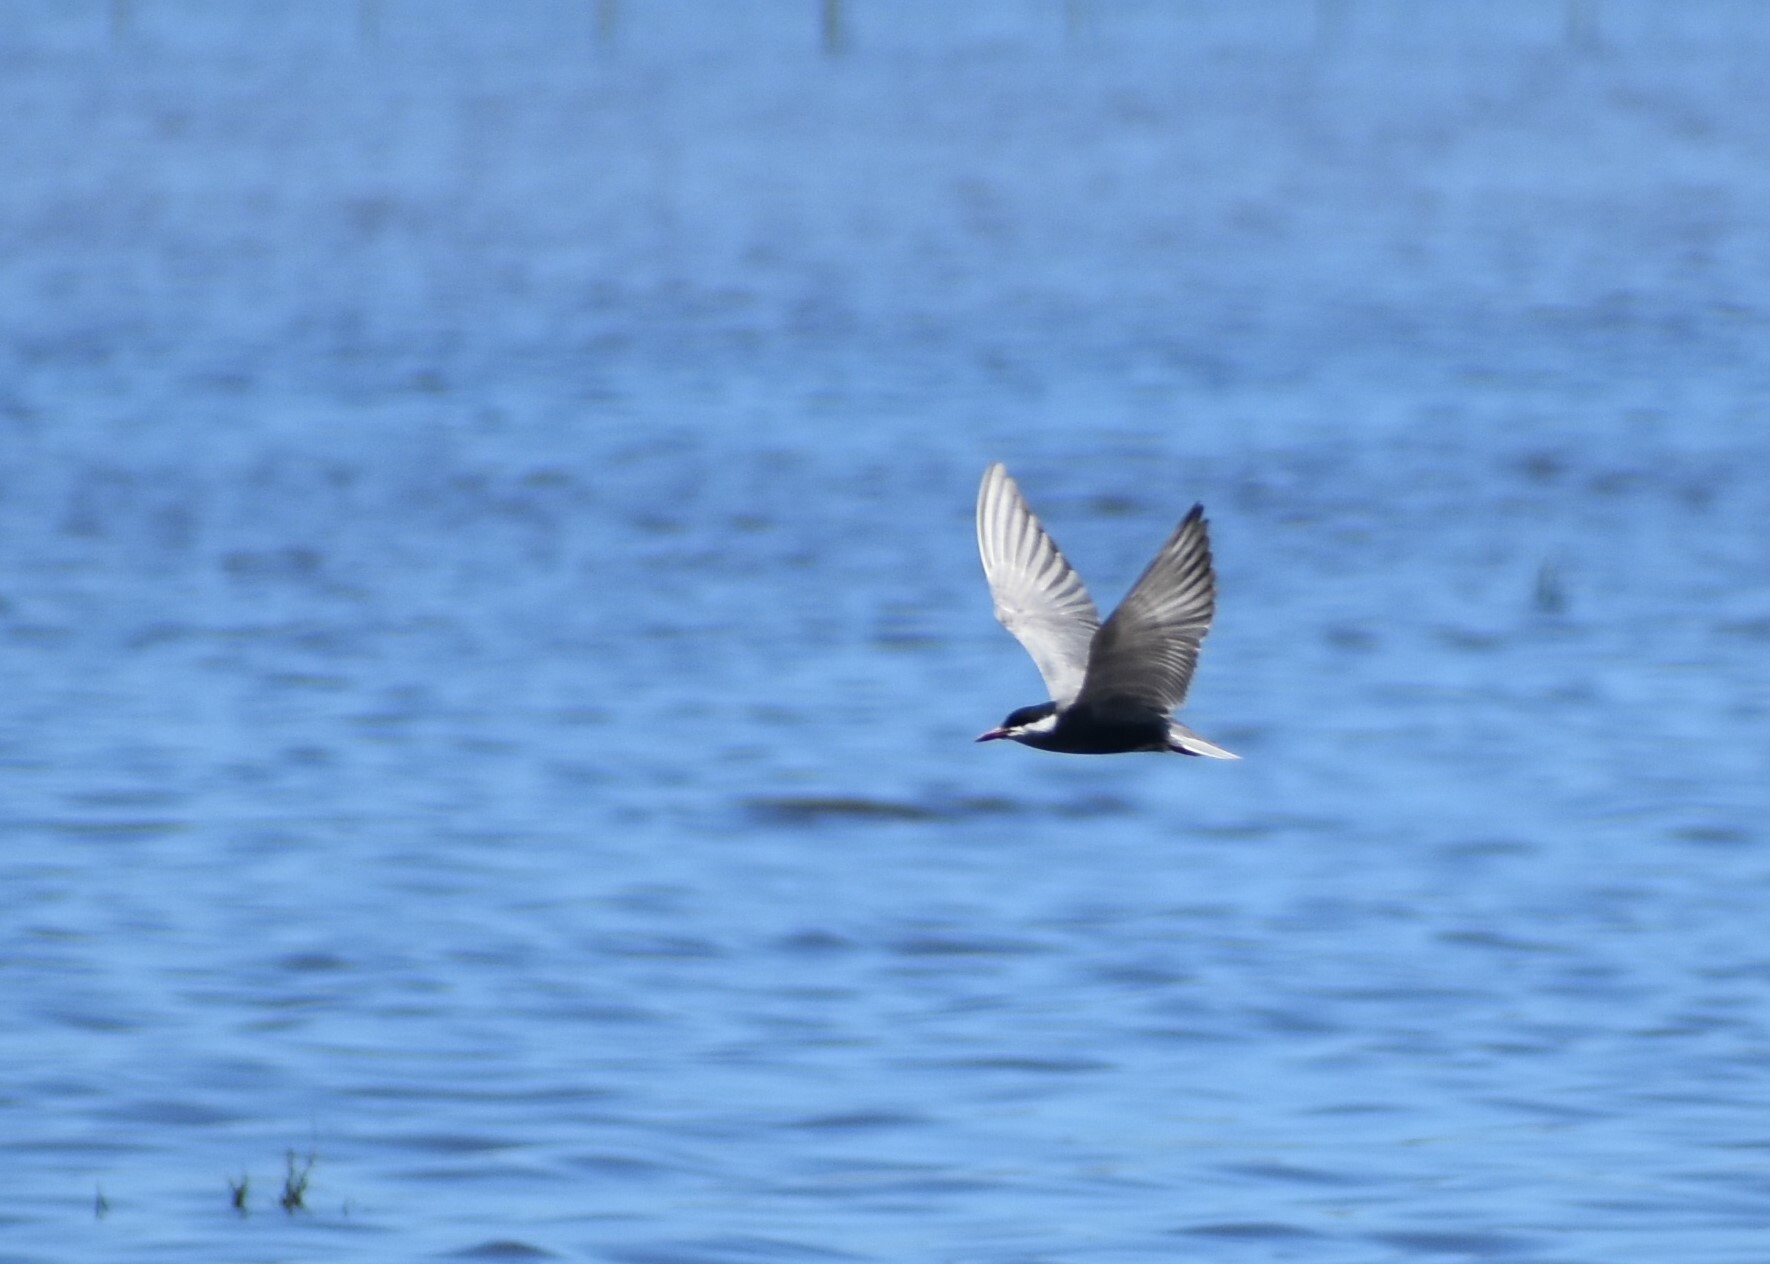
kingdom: Animalia
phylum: Chordata
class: Aves
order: Charadriiformes
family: Laridae
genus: Chlidonias
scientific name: Chlidonias hybrida
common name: Whiskered tern
